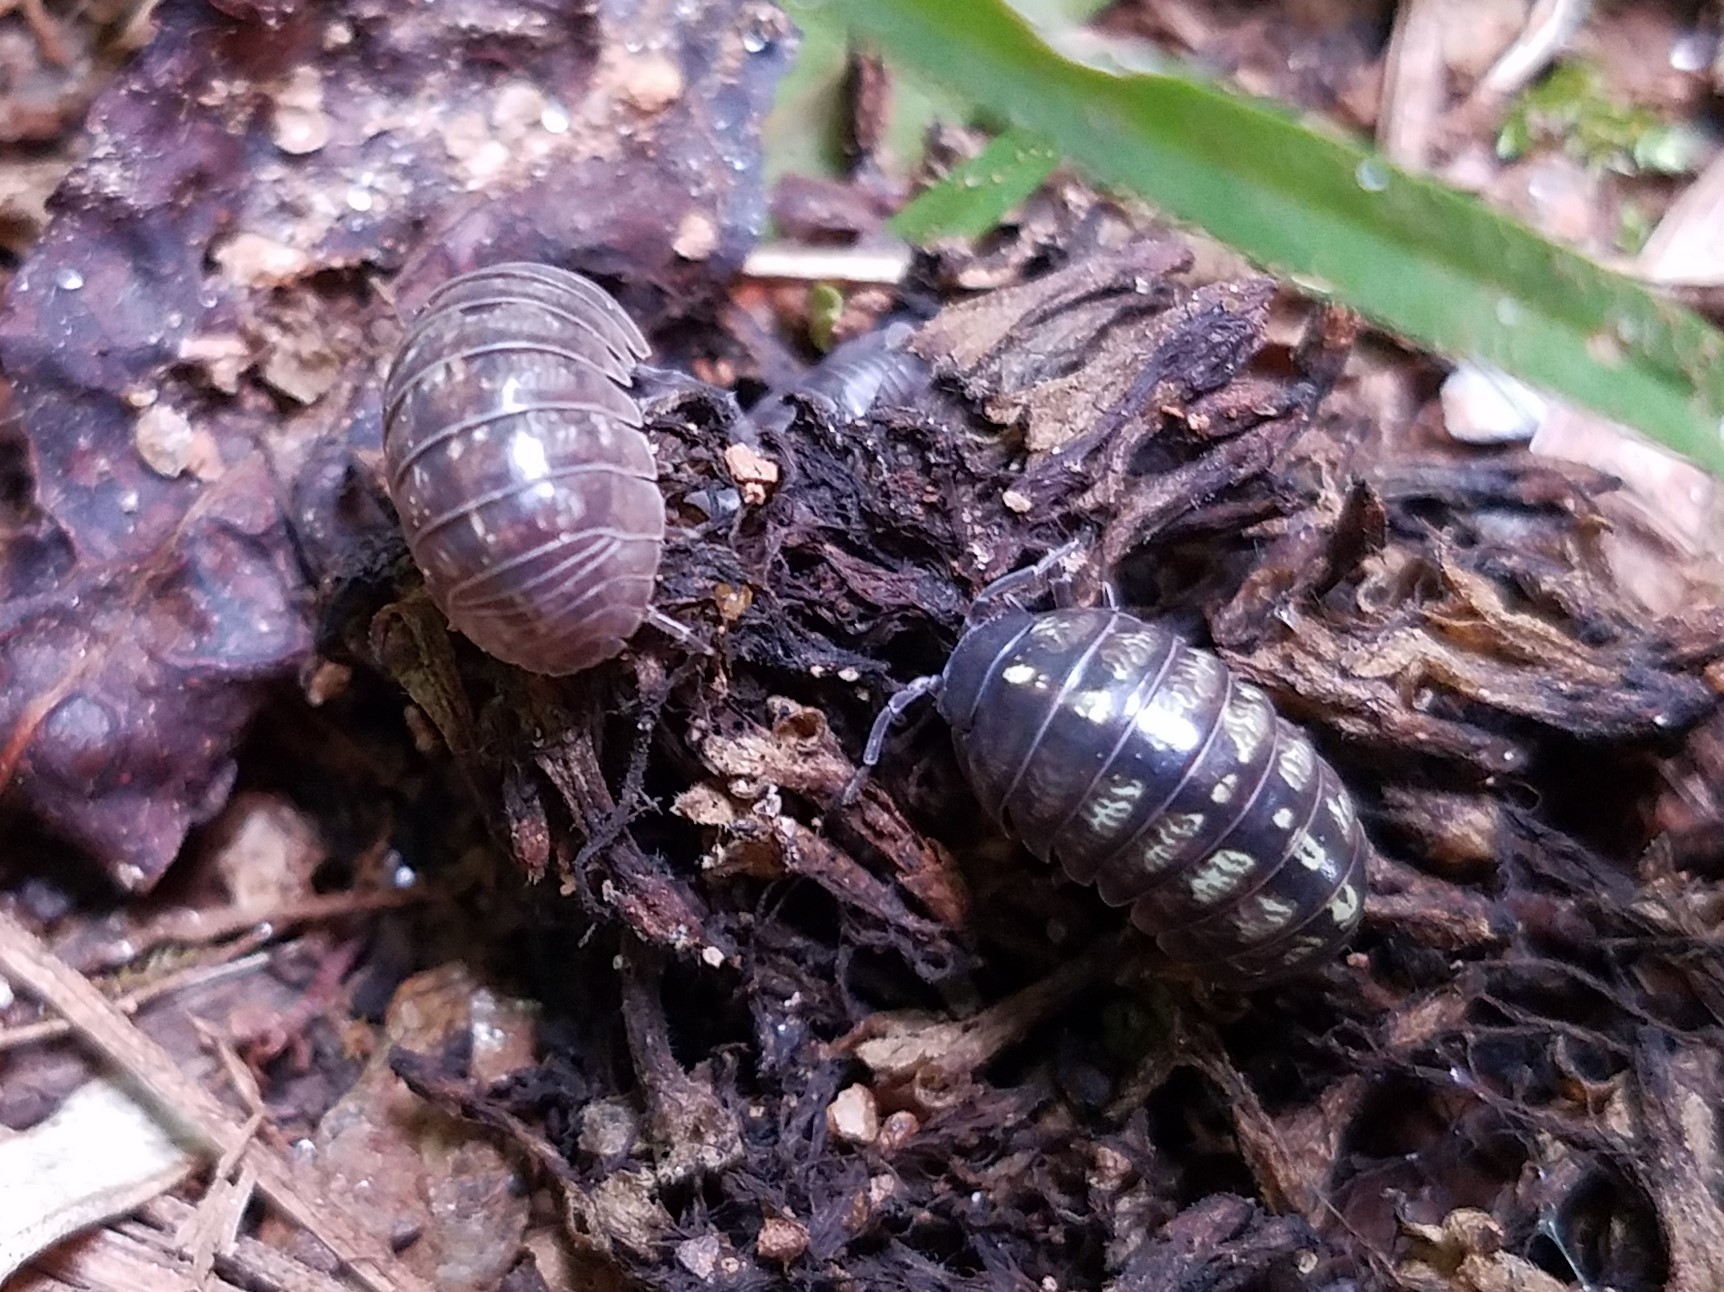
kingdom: Animalia
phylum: Arthropoda
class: Malacostraca
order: Isopoda
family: Armadillidiidae
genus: Armadillidium
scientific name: Armadillidium vulgare
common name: Common pill woodlouse
